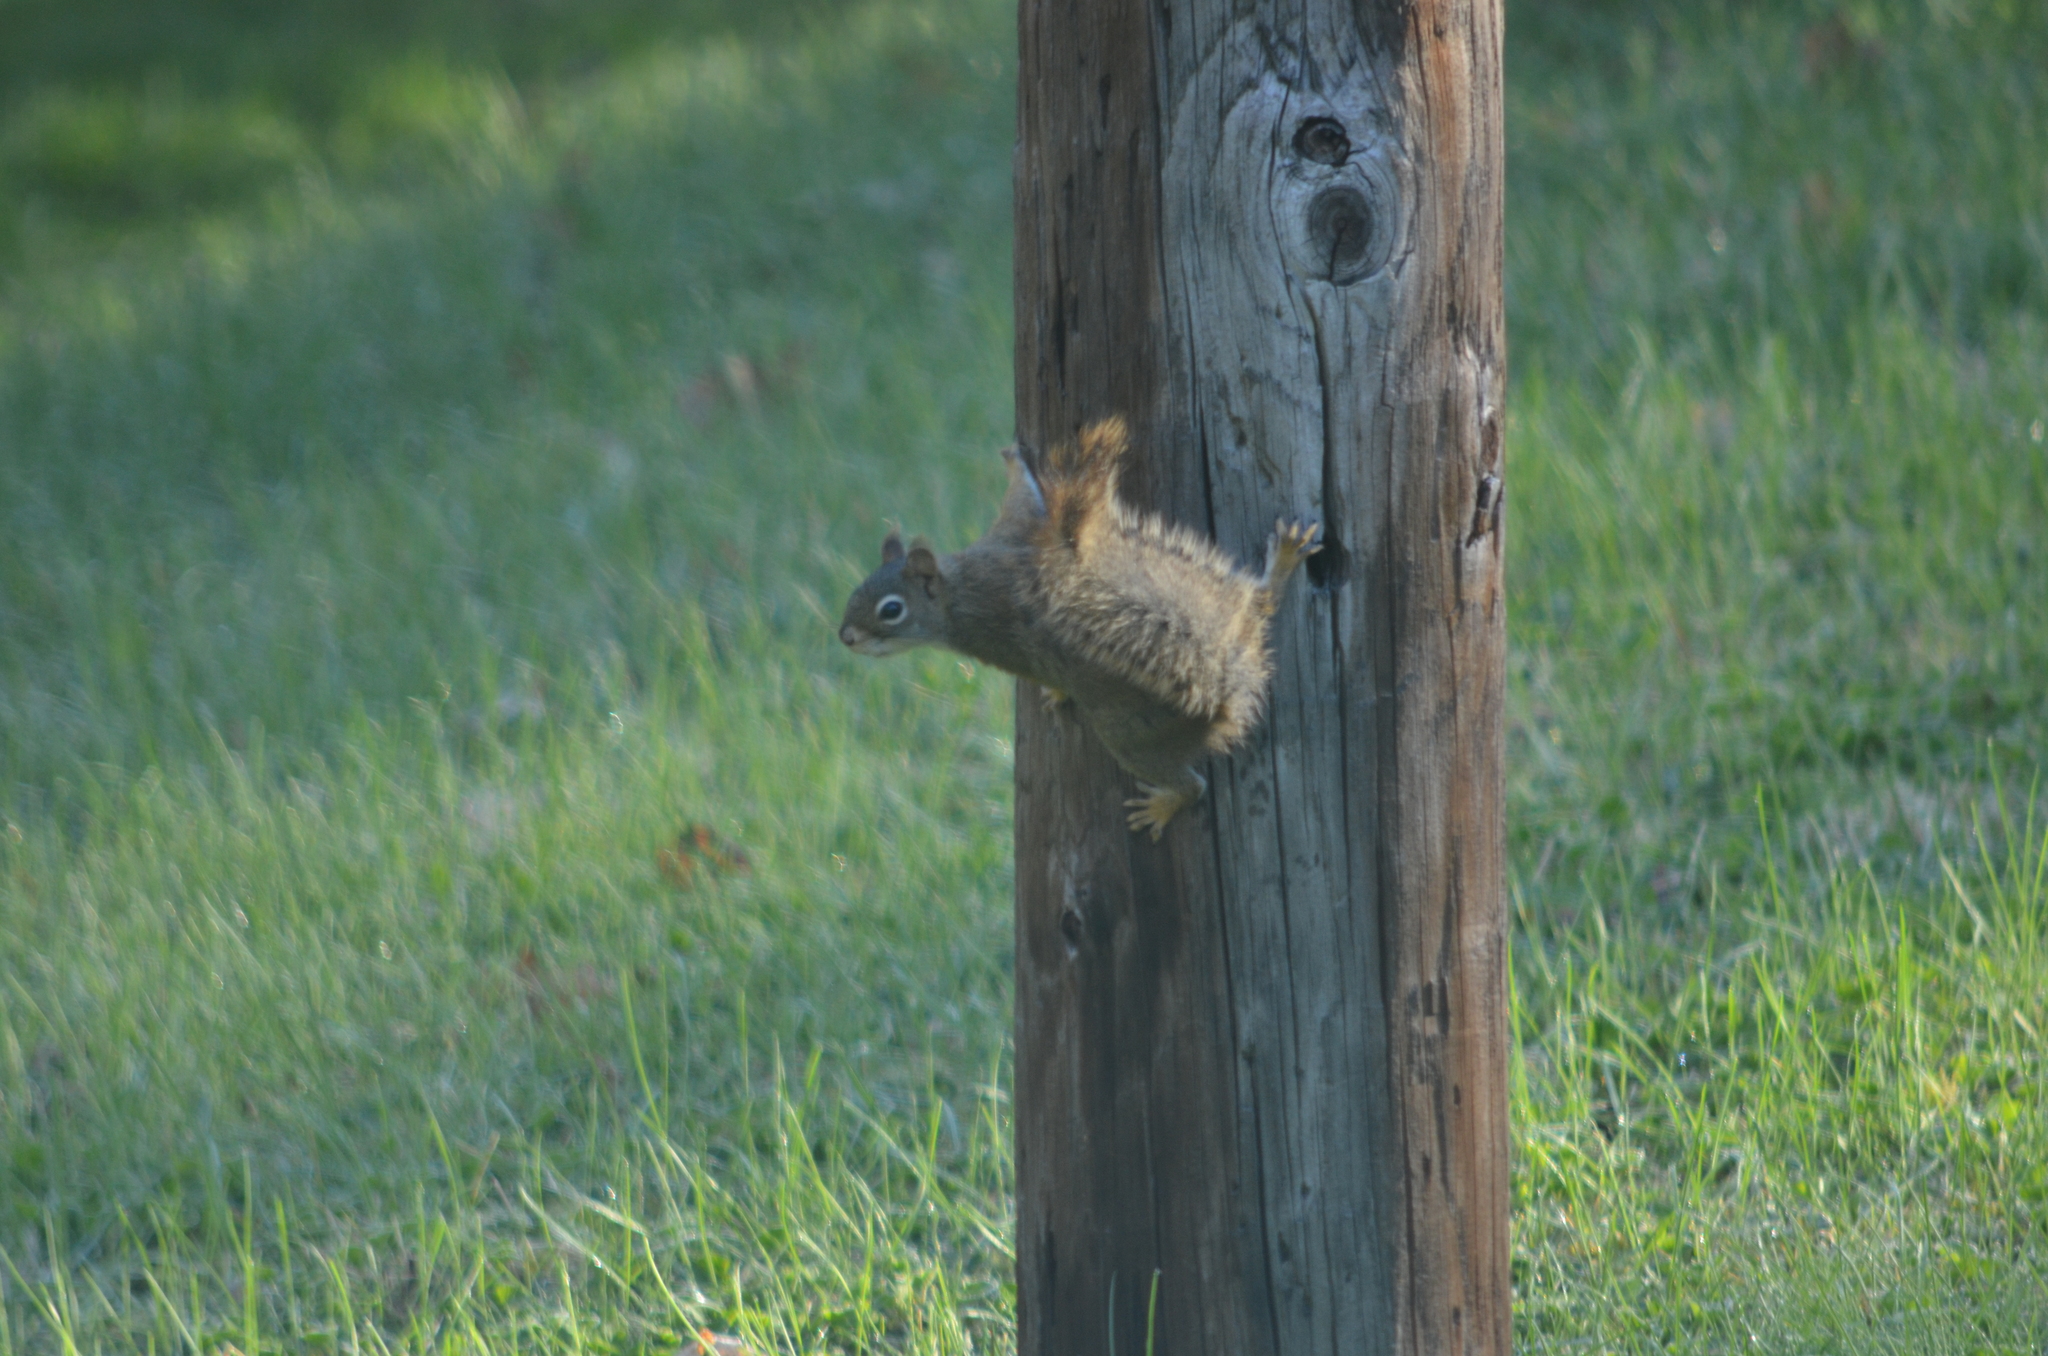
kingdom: Animalia
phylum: Chordata
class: Mammalia
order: Rodentia
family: Sciuridae
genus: Tamiasciurus
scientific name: Tamiasciurus hudsonicus
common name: Red squirrel
